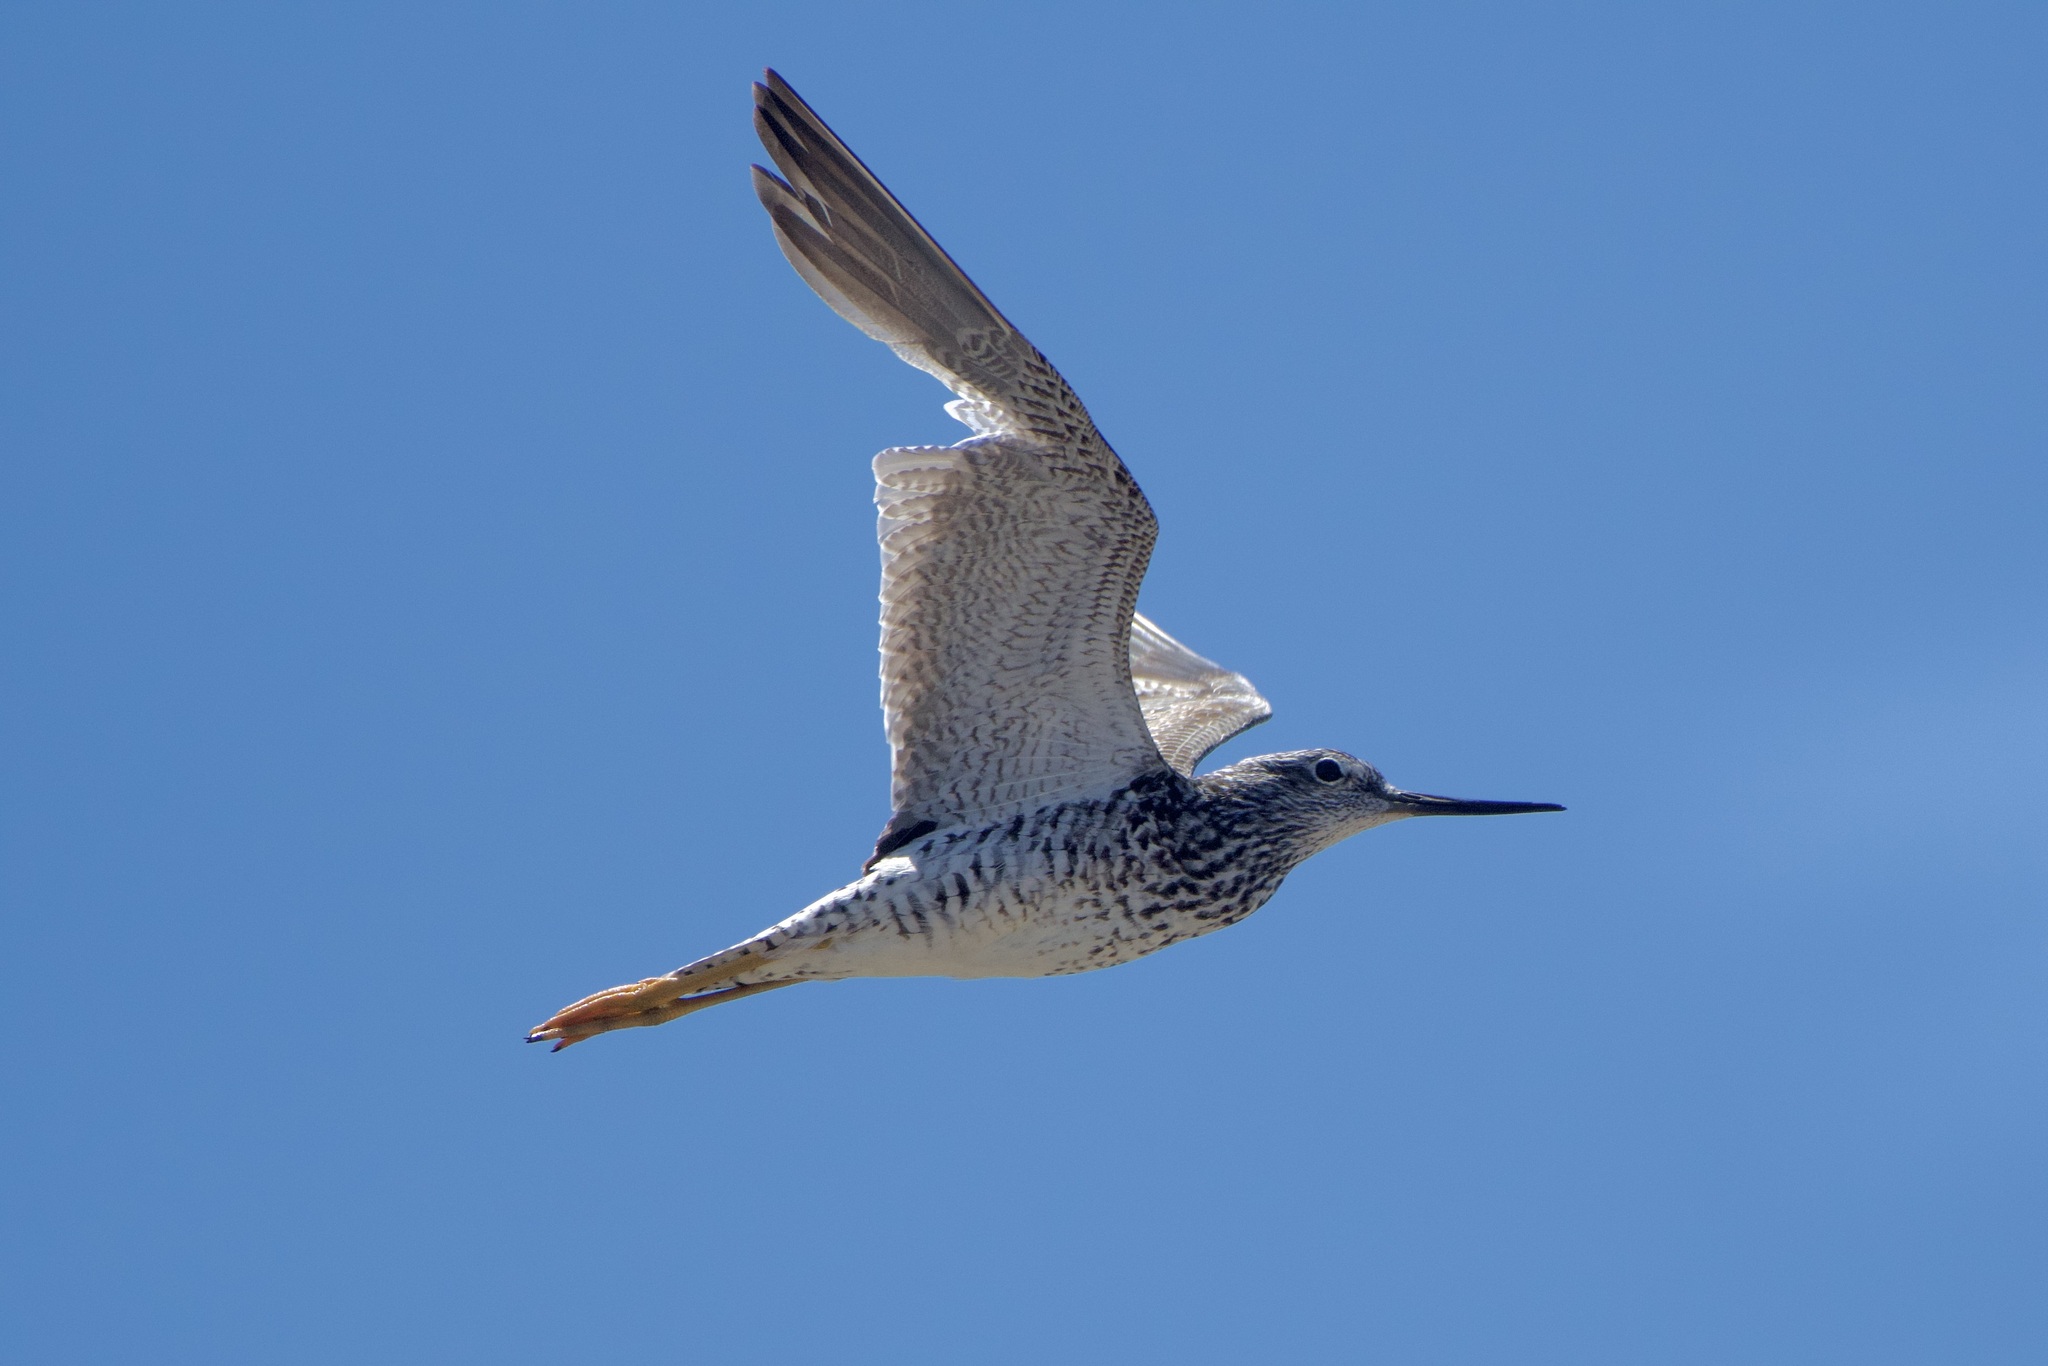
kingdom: Animalia
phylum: Chordata
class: Aves
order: Charadriiformes
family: Scolopacidae
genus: Tringa
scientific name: Tringa melanoleuca
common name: Greater yellowlegs
